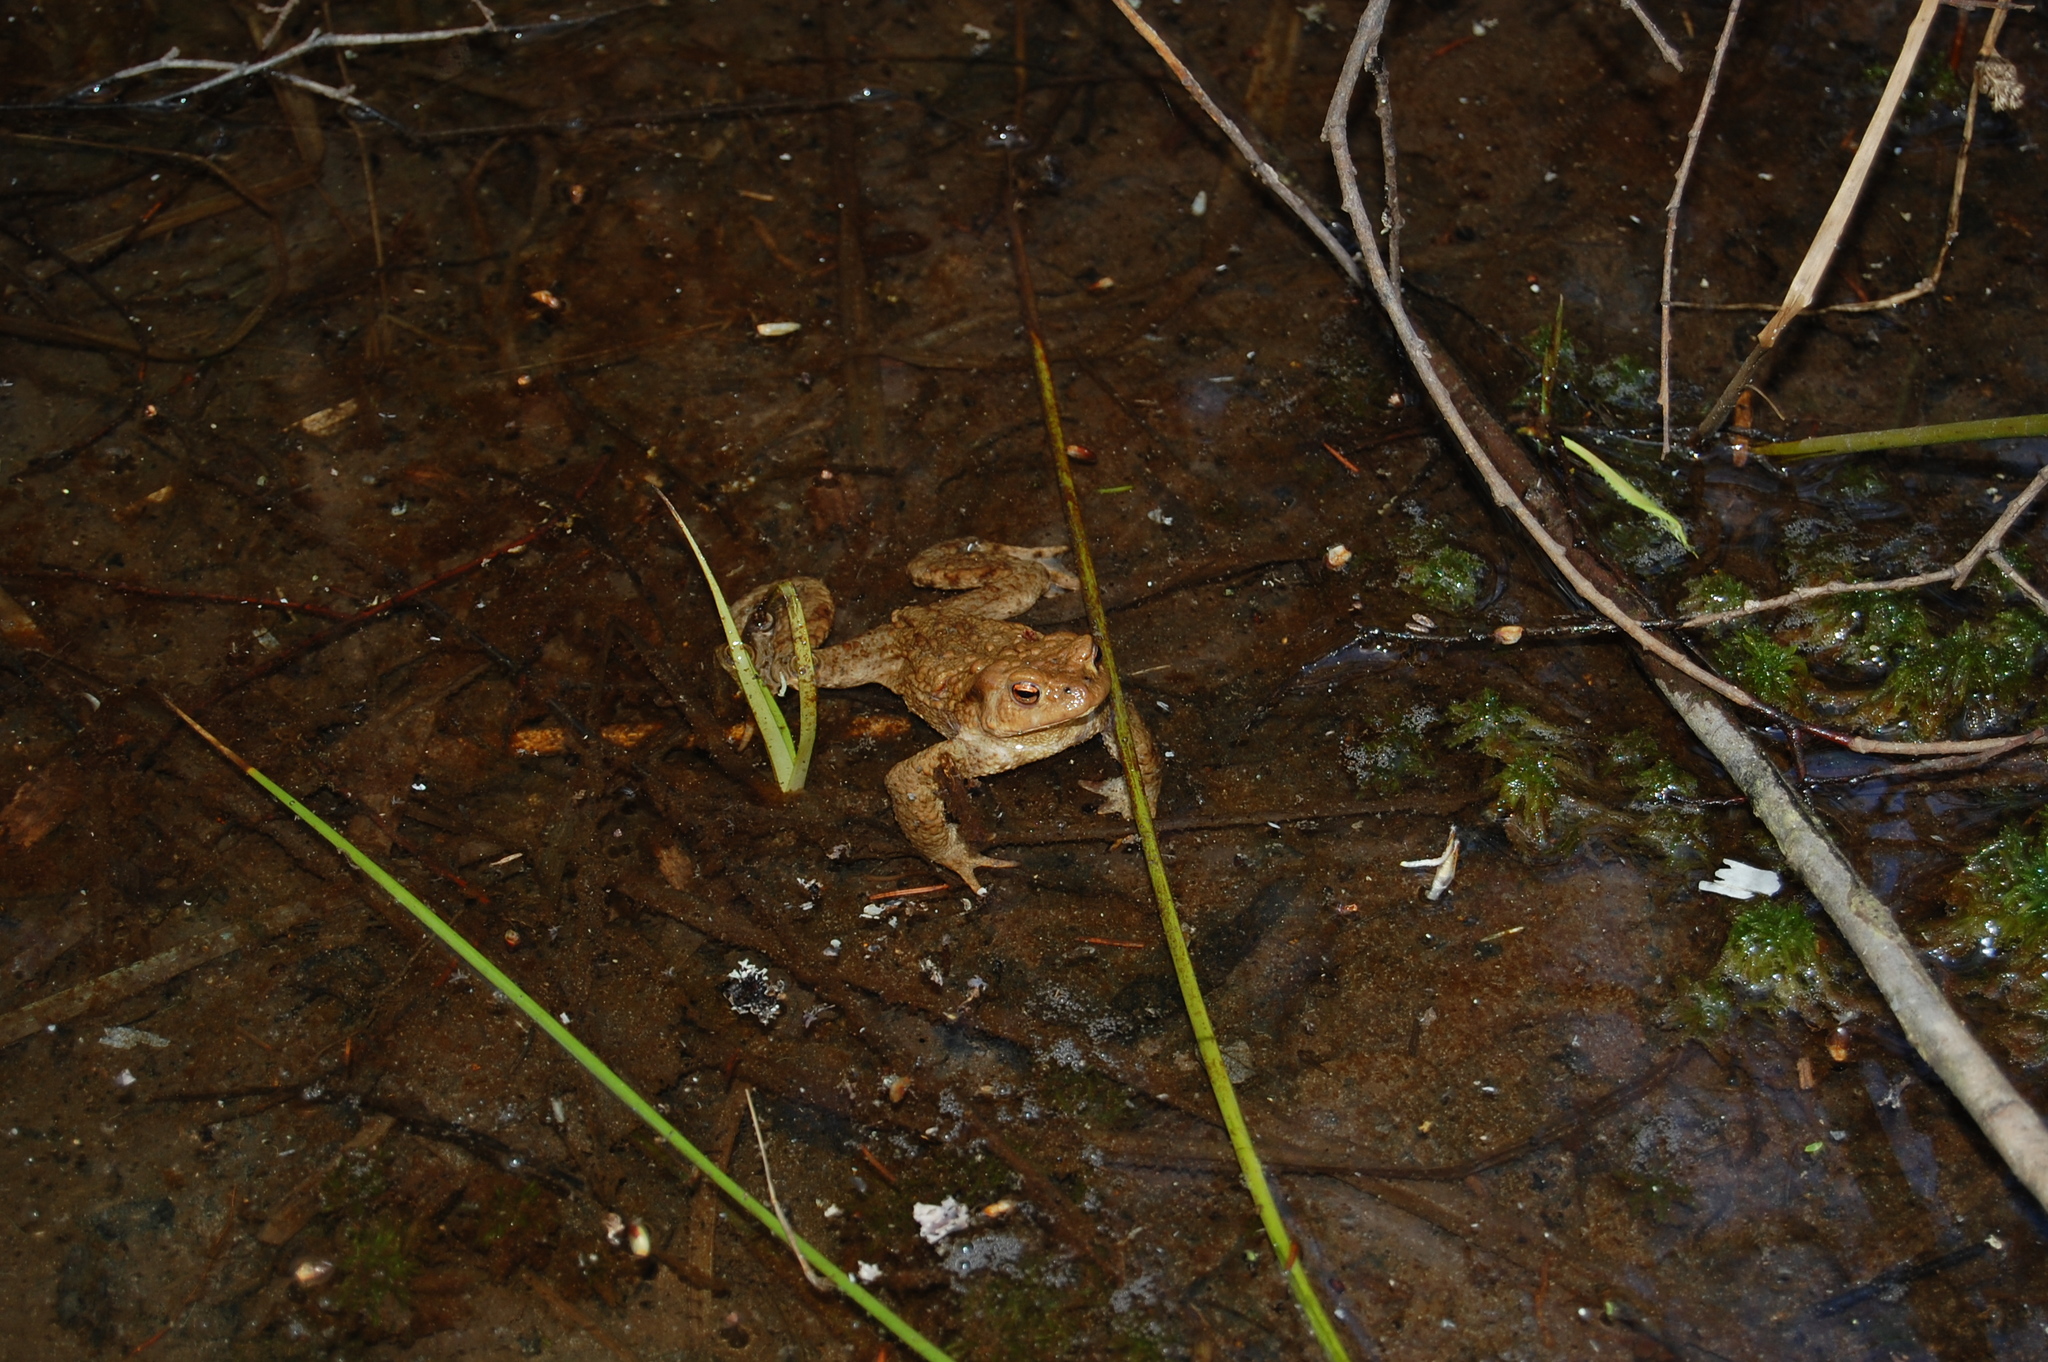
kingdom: Animalia
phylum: Chordata
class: Amphibia
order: Anura
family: Bufonidae
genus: Bufo
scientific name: Bufo bufo
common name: Common toad
